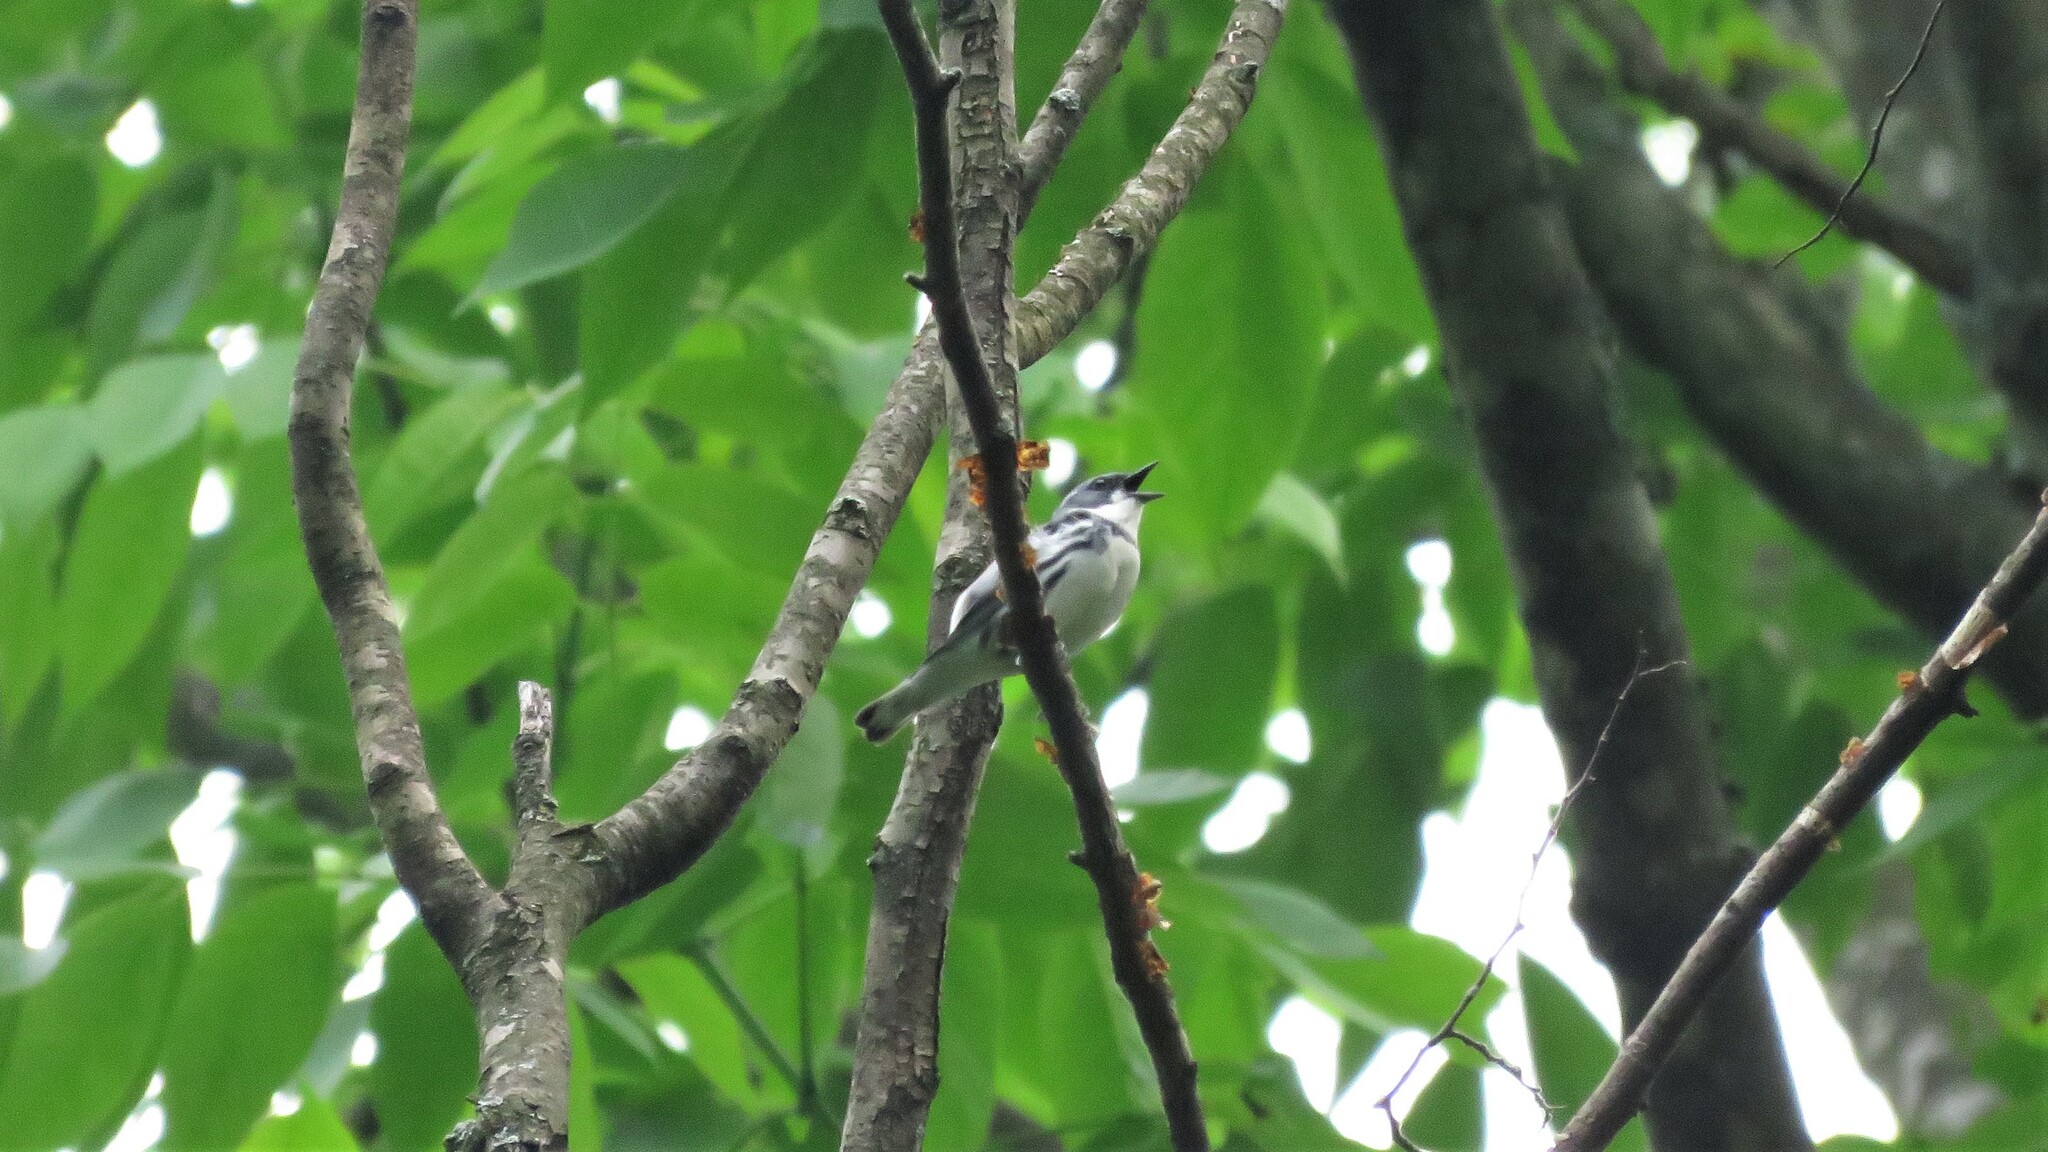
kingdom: Animalia
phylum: Chordata
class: Aves
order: Passeriformes
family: Parulidae
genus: Setophaga
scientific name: Setophaga cerulea
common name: Cerulean warbler
